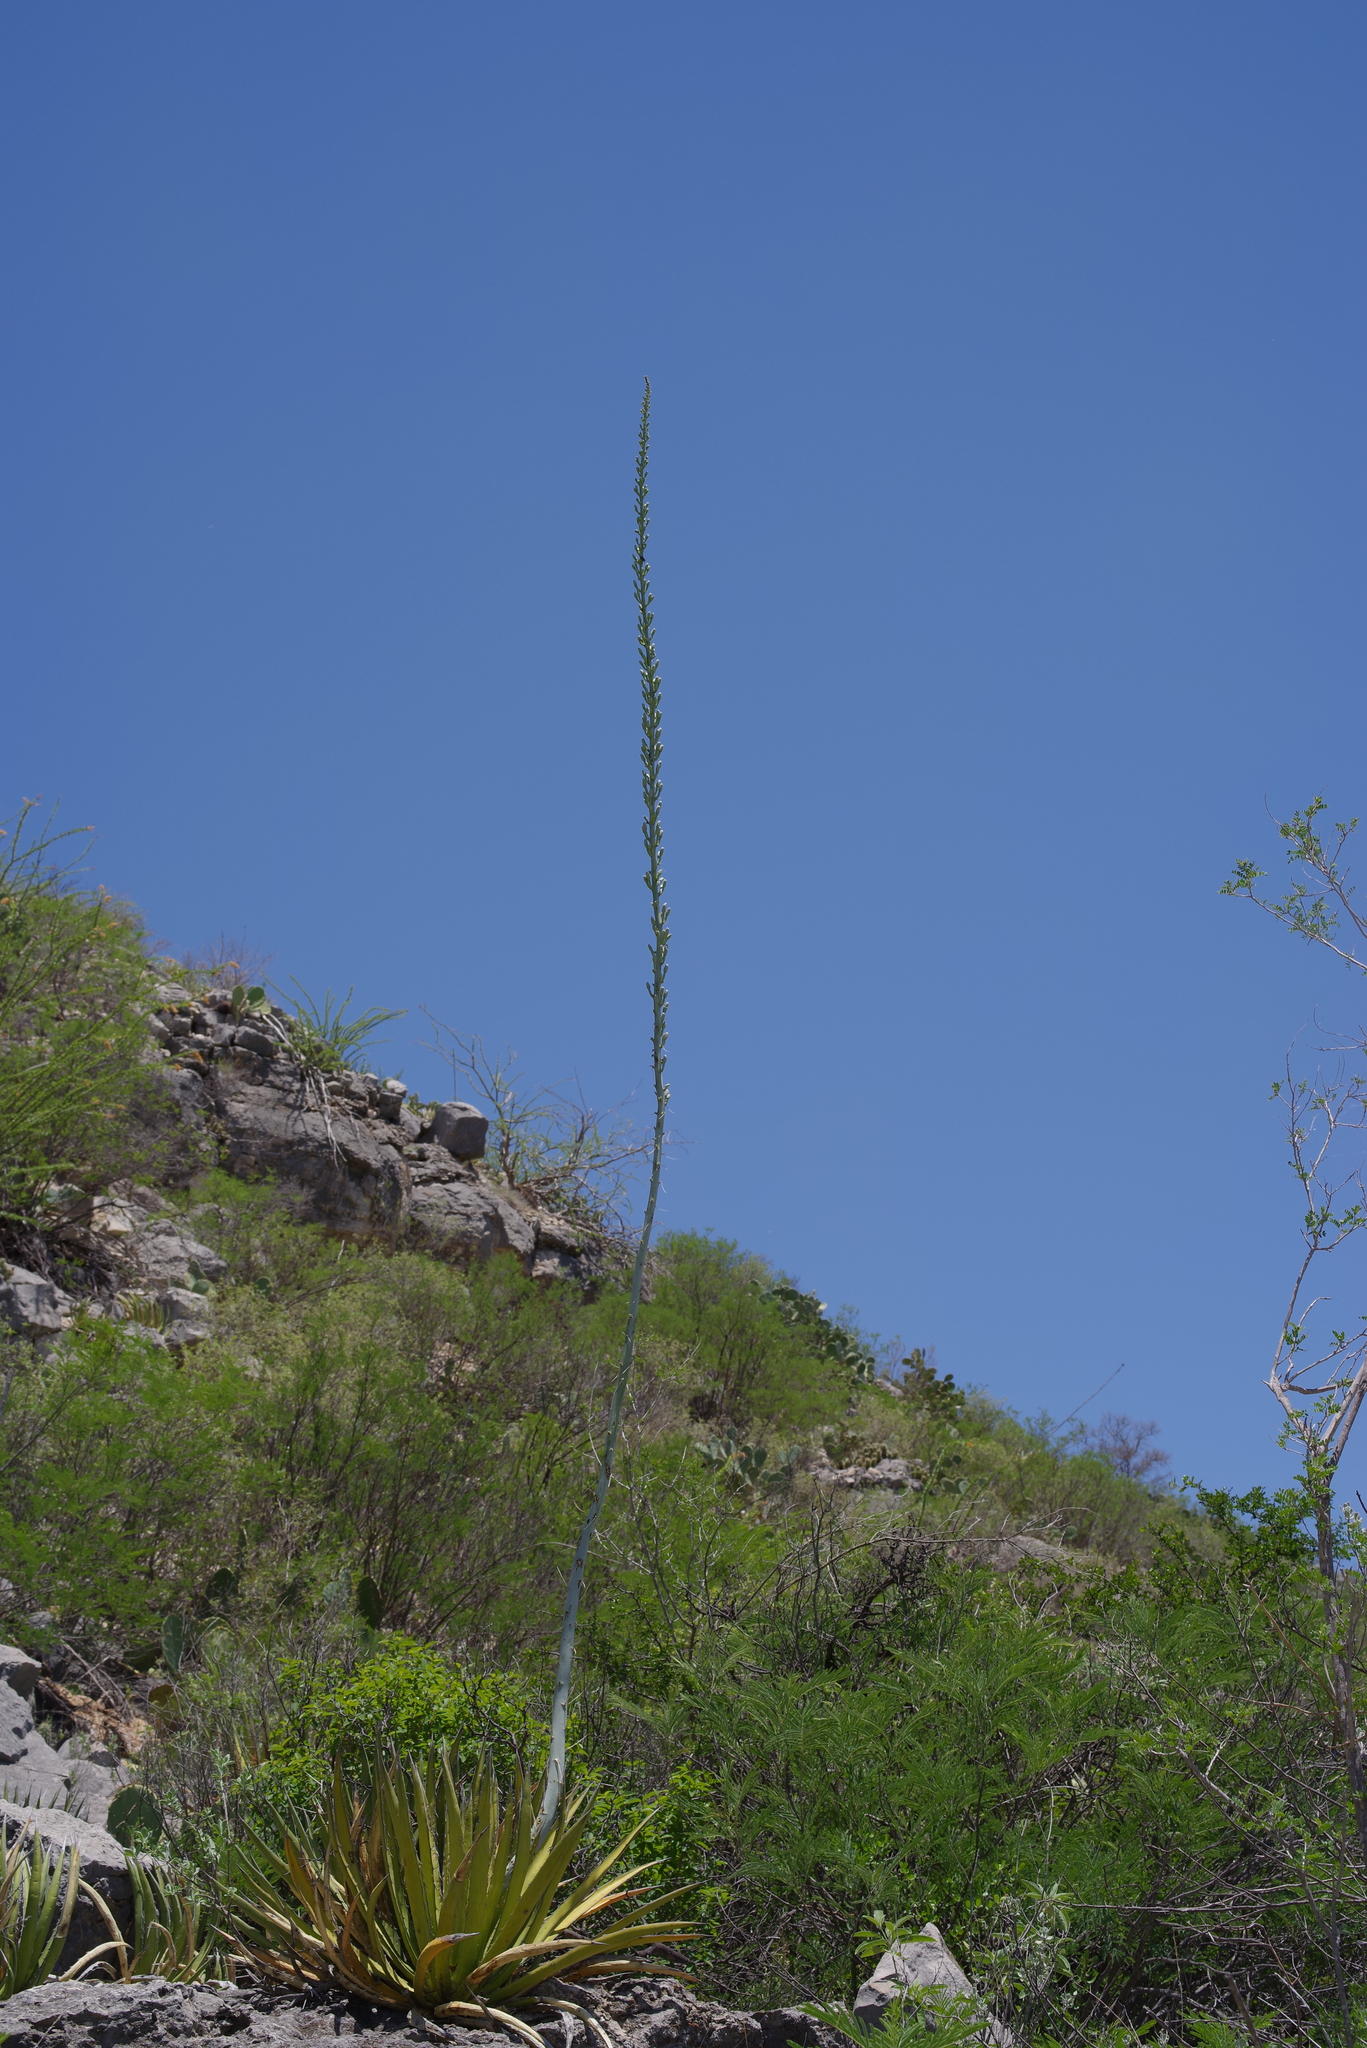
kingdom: Plantae
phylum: Tracheophyta
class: Liliopsida
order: Asparagales
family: Asparagaceae
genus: Agave
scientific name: Agave lechuguilla
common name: Lecheguilla agave
